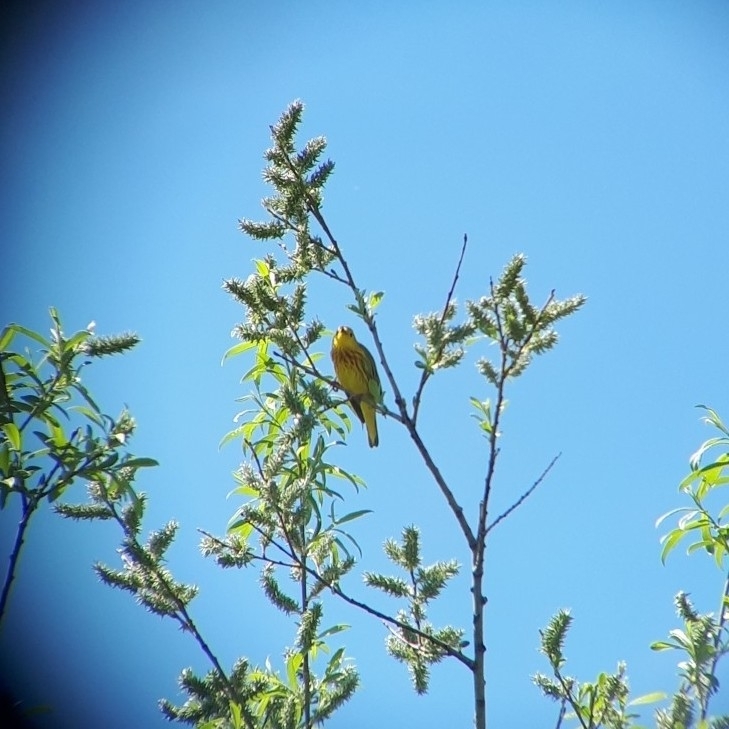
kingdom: Animalia
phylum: Chordata
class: Aves
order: Passeriformes
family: Parulidae
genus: Setophaga
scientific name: Setophaga petechia
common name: Yellow warbler
